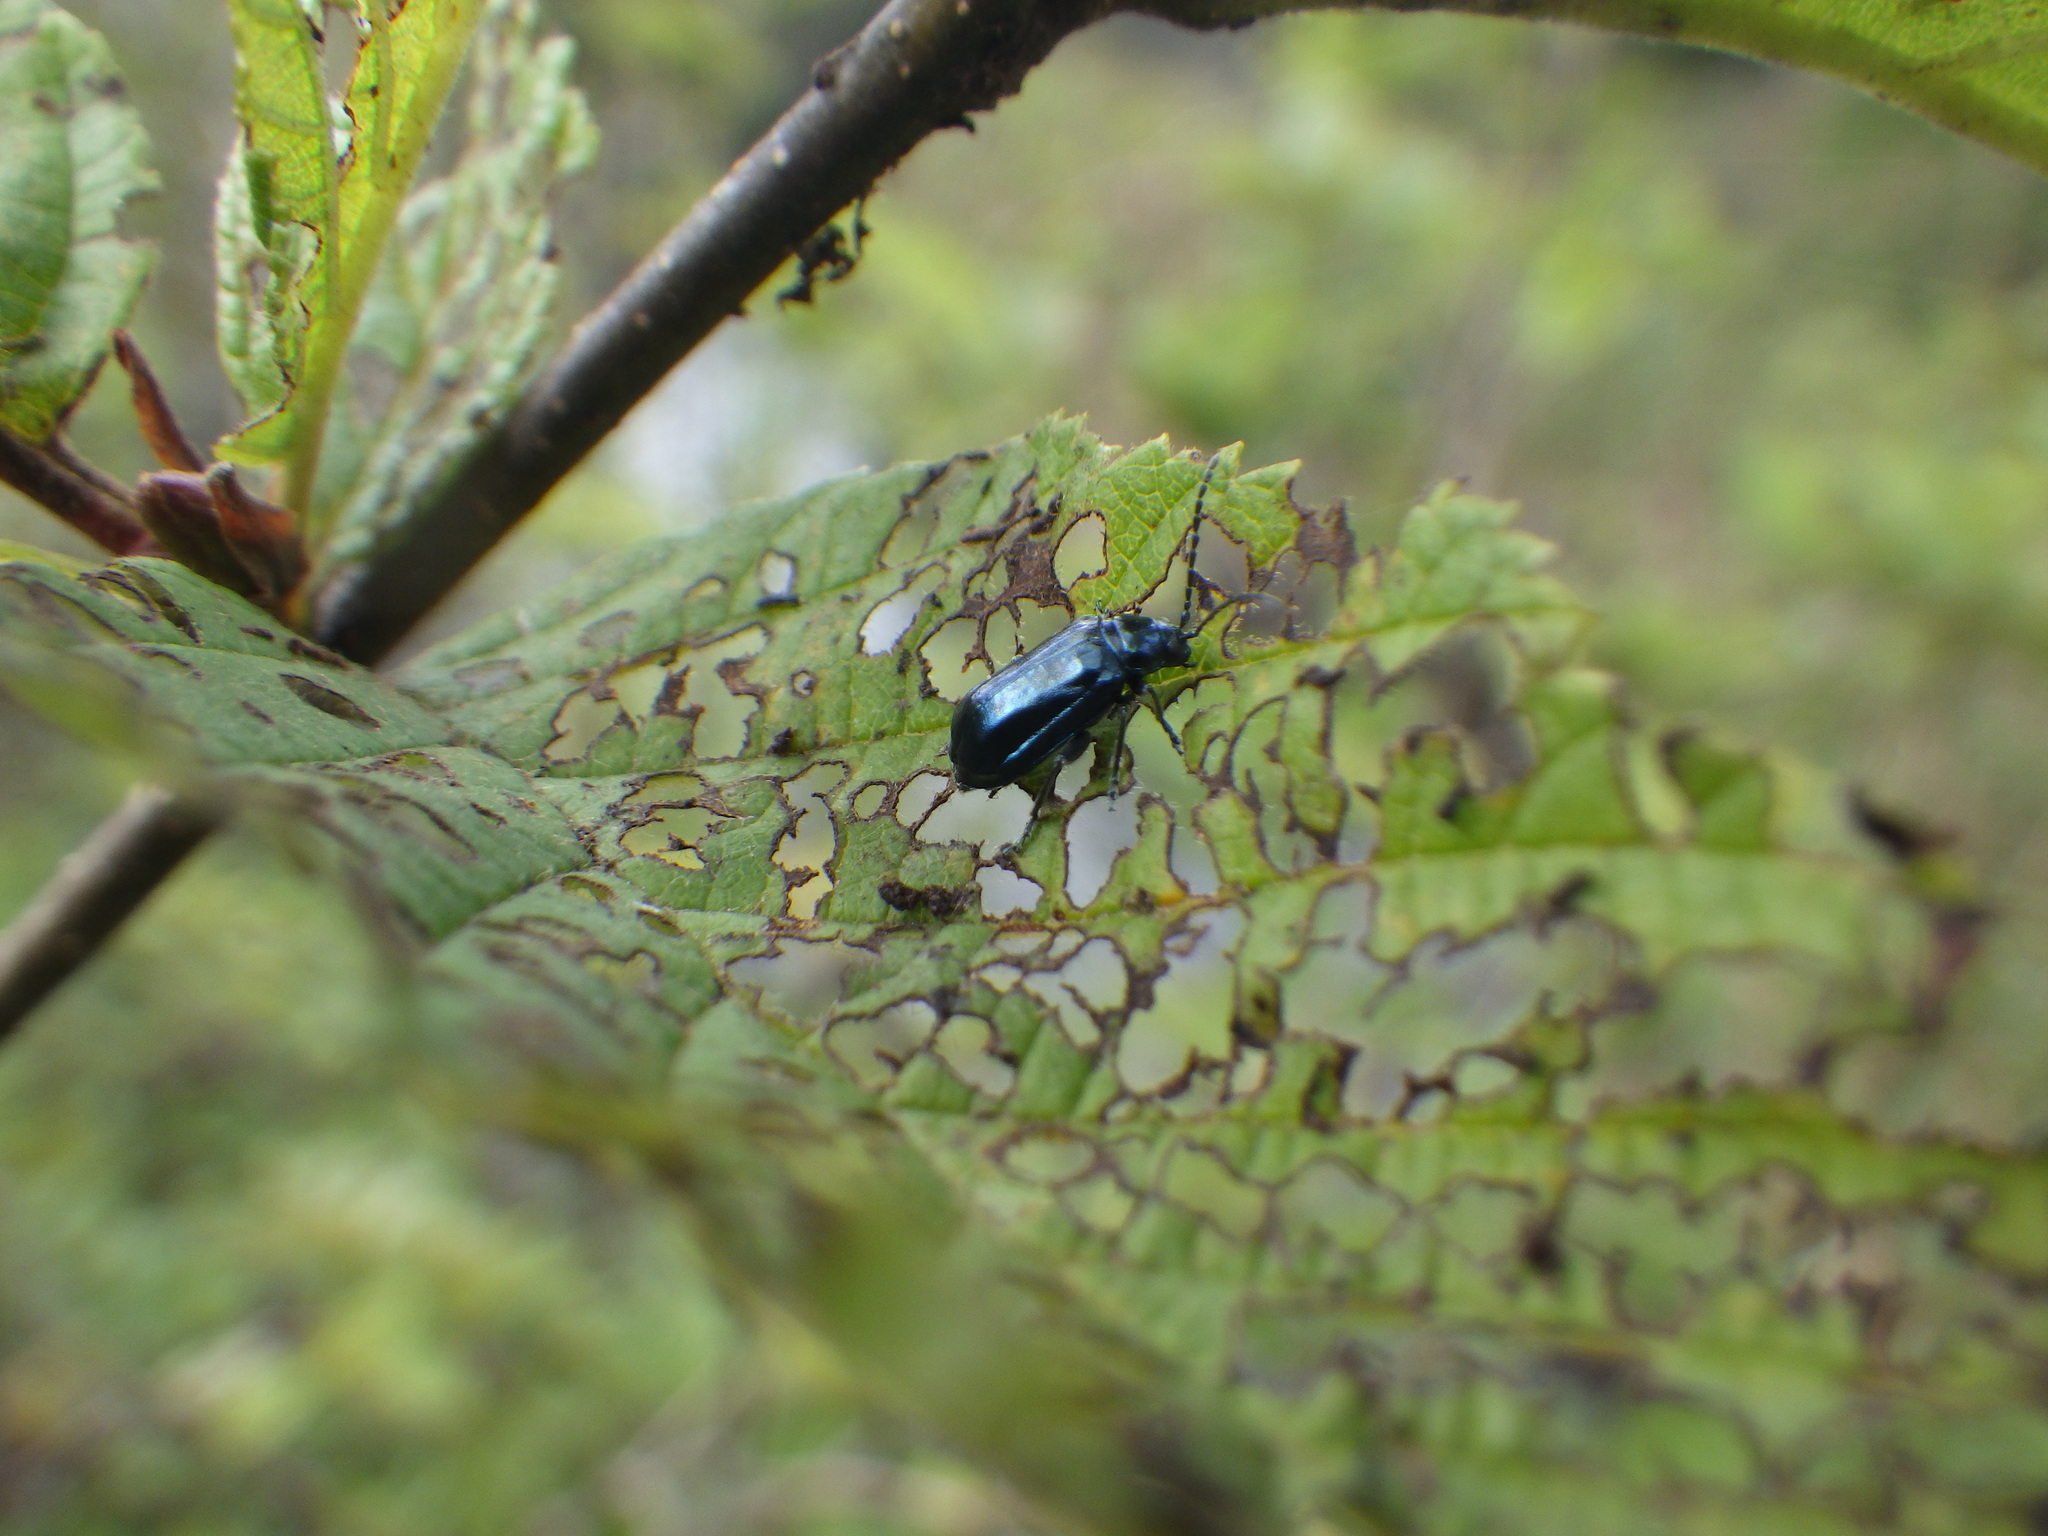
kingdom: Animalia
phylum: Arthropoda
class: Insecta
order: Coleoptera
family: Chrysomelidae
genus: Altica
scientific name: Altica ambiens
